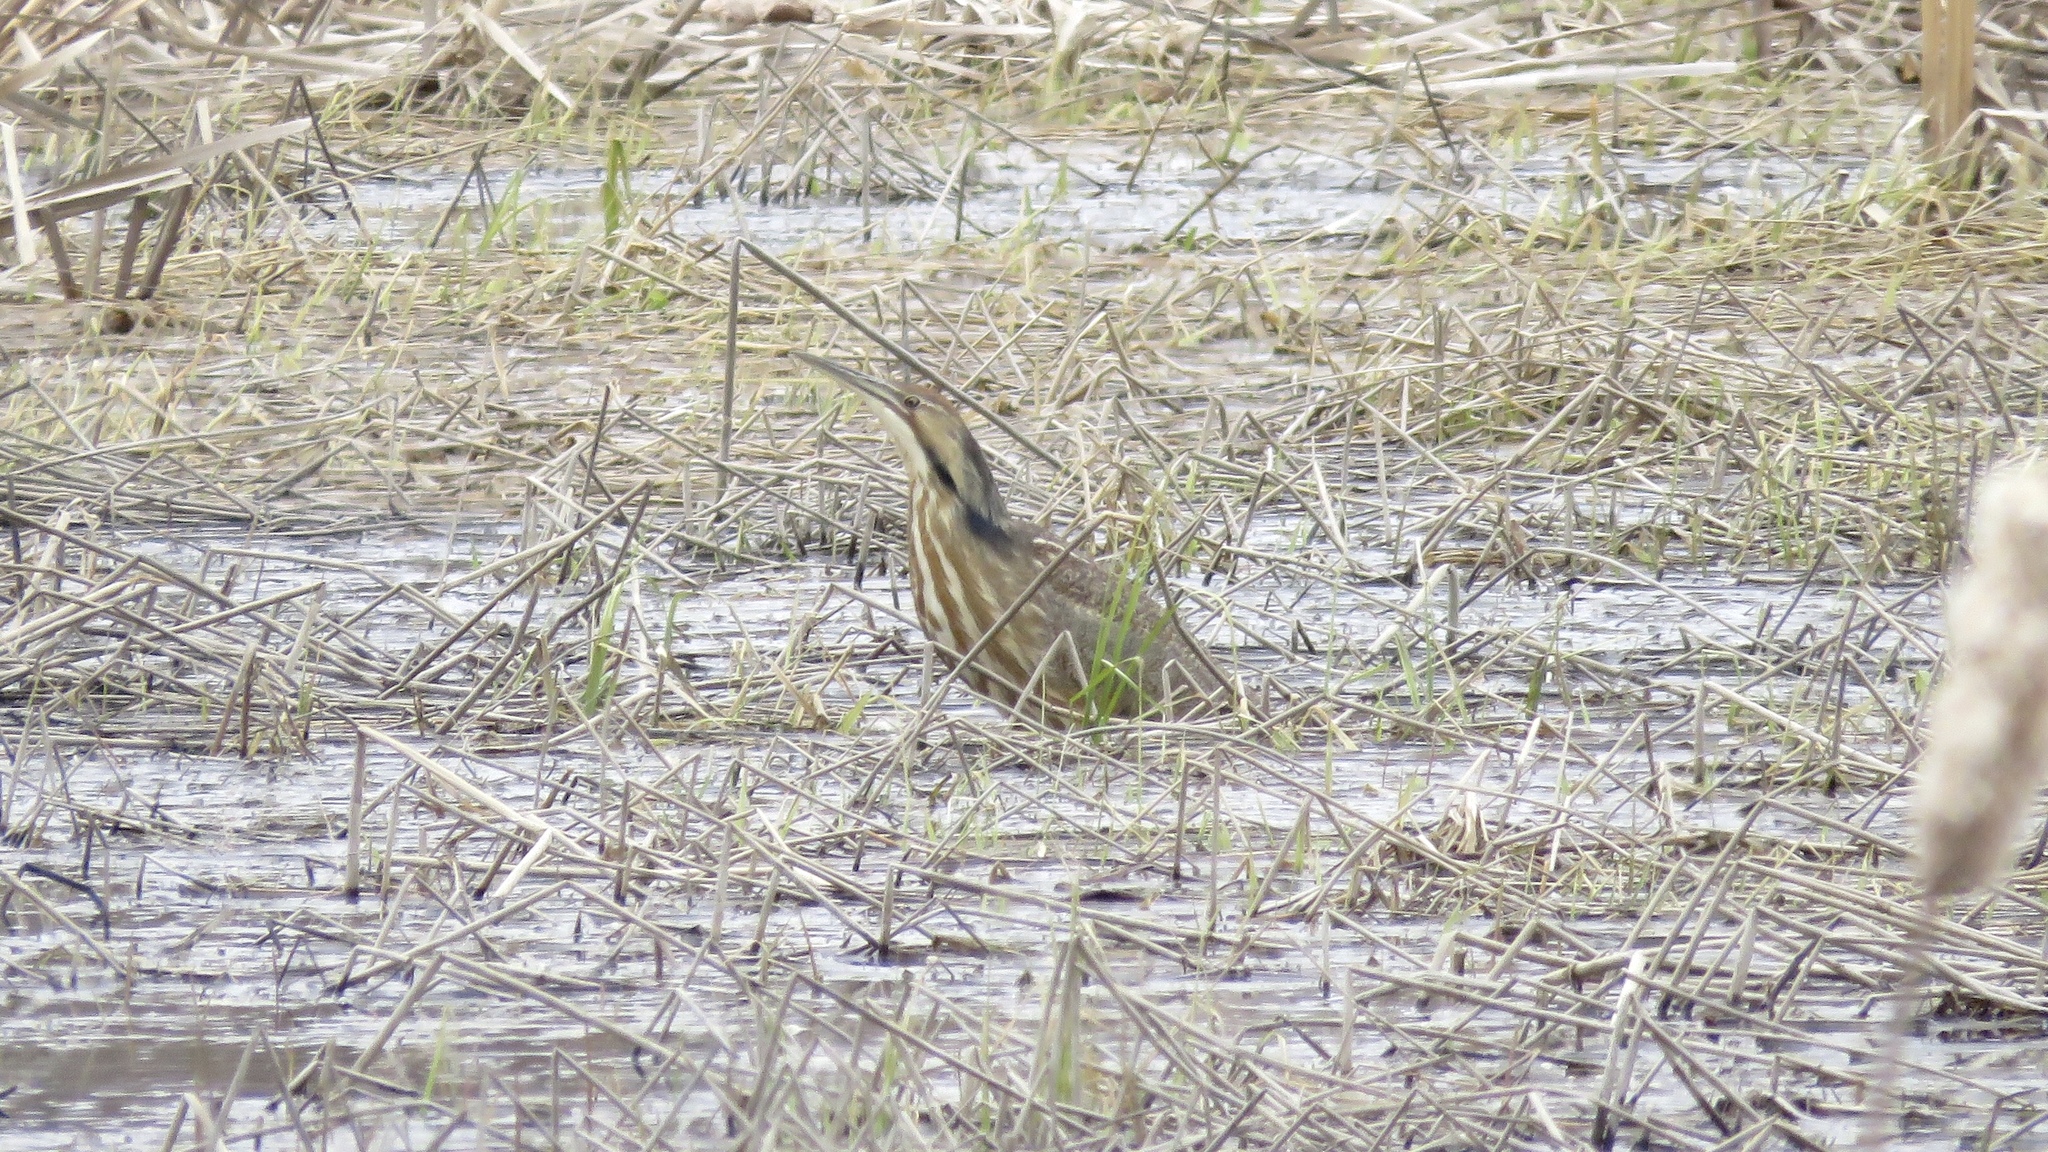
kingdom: Animalia
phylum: Chordata
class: Aves
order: Pelecaniformes
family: Ardeidae
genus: Botaurus
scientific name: Botaurus lentiginosus
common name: American bittern
